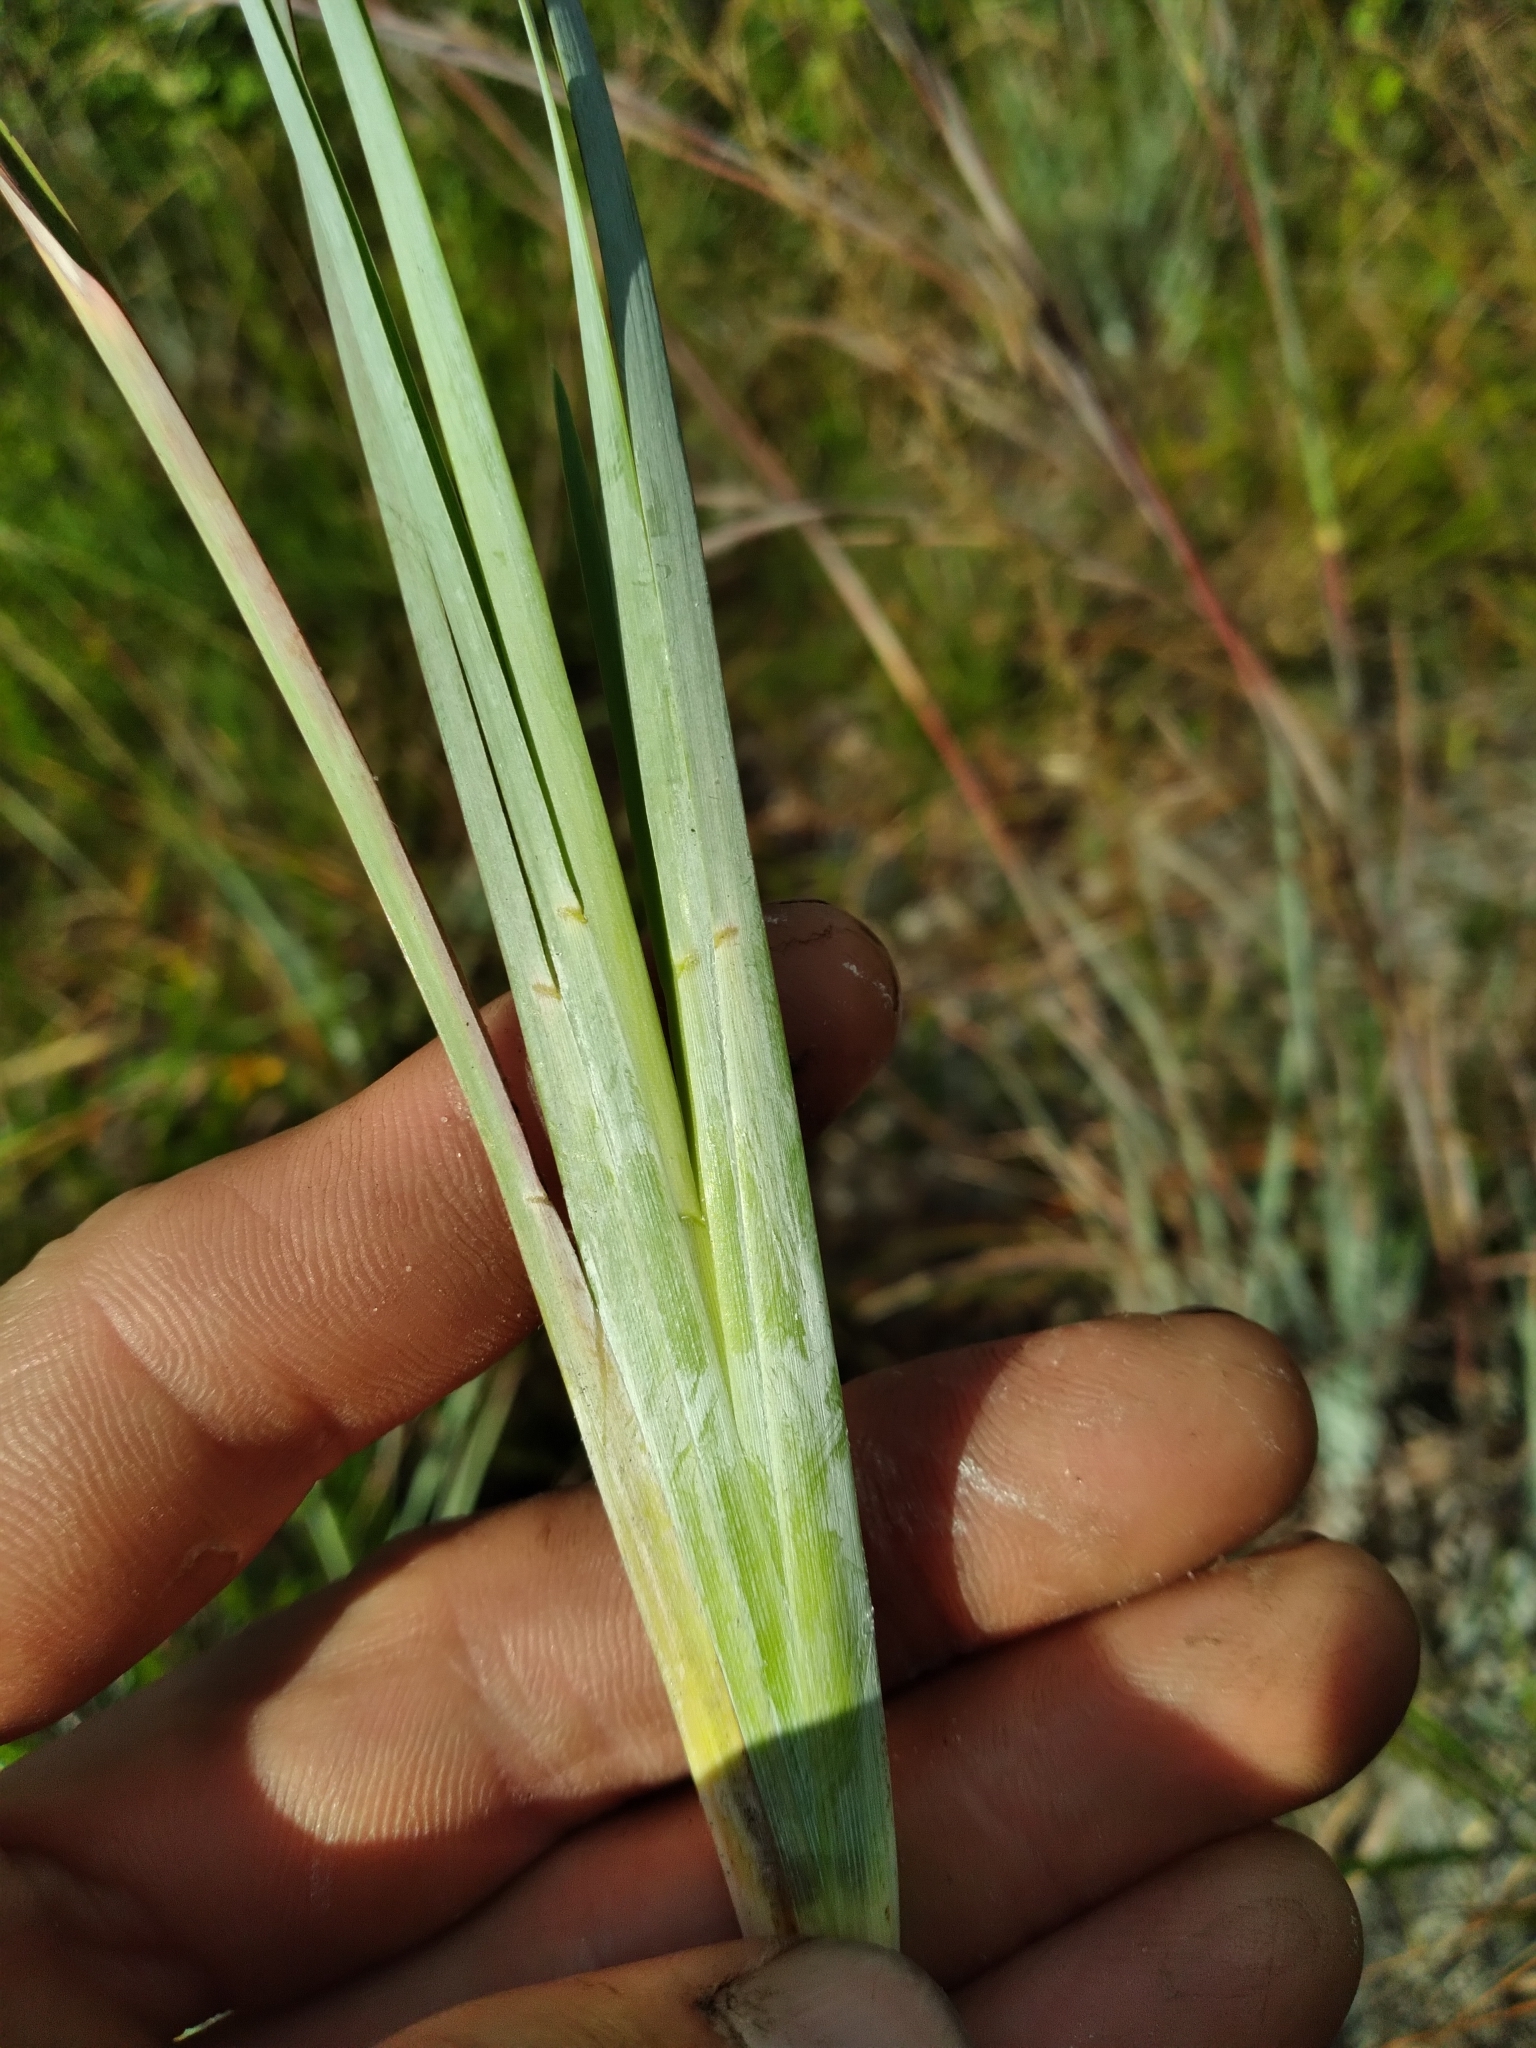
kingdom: Plantae
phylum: Tracheophyta
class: Liliopsida
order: Poales
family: Poaceae
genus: Andropogon
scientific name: Andropogon capillipes
